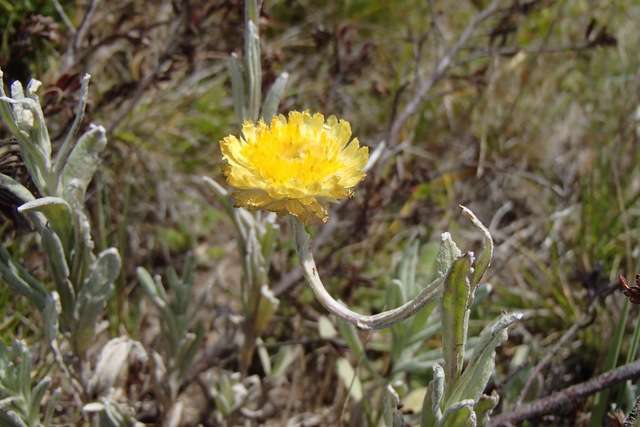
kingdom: Plantae
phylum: Tracheophyta
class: Magnoliopsida
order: Asterales
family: Asteraceae
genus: Coronidium
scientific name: Coronidium monticola
